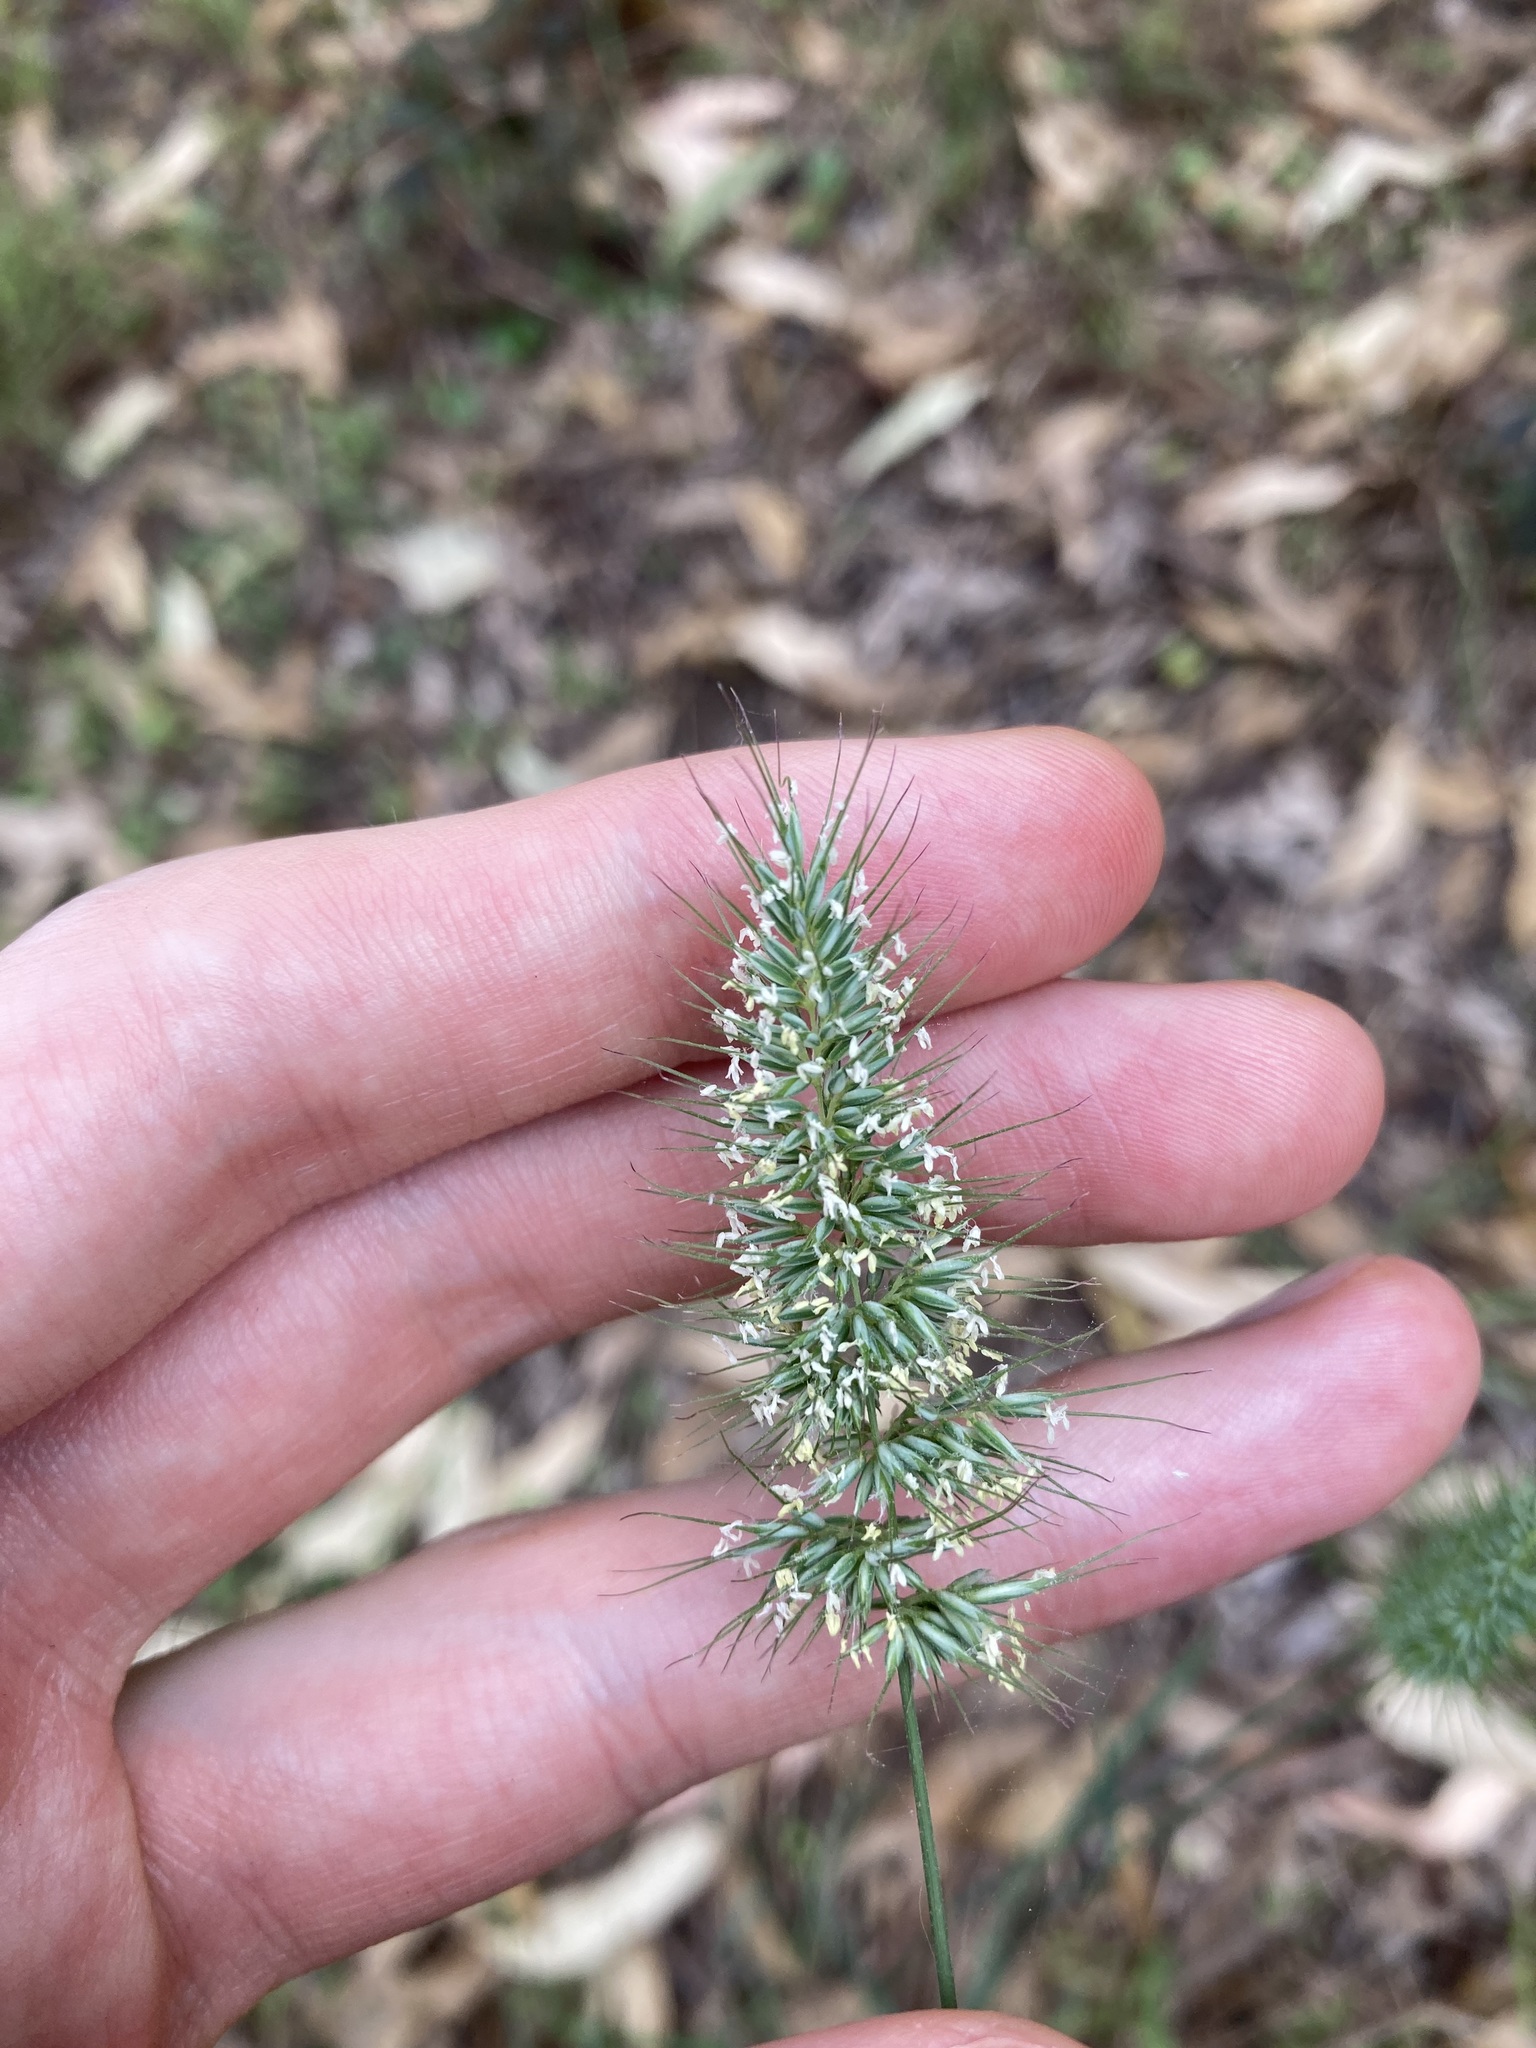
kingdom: Plantae
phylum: Tracheophyta
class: Liliopsida
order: Poales
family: Poaceae
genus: Echinopogon
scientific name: Echinopogon caespitosus
